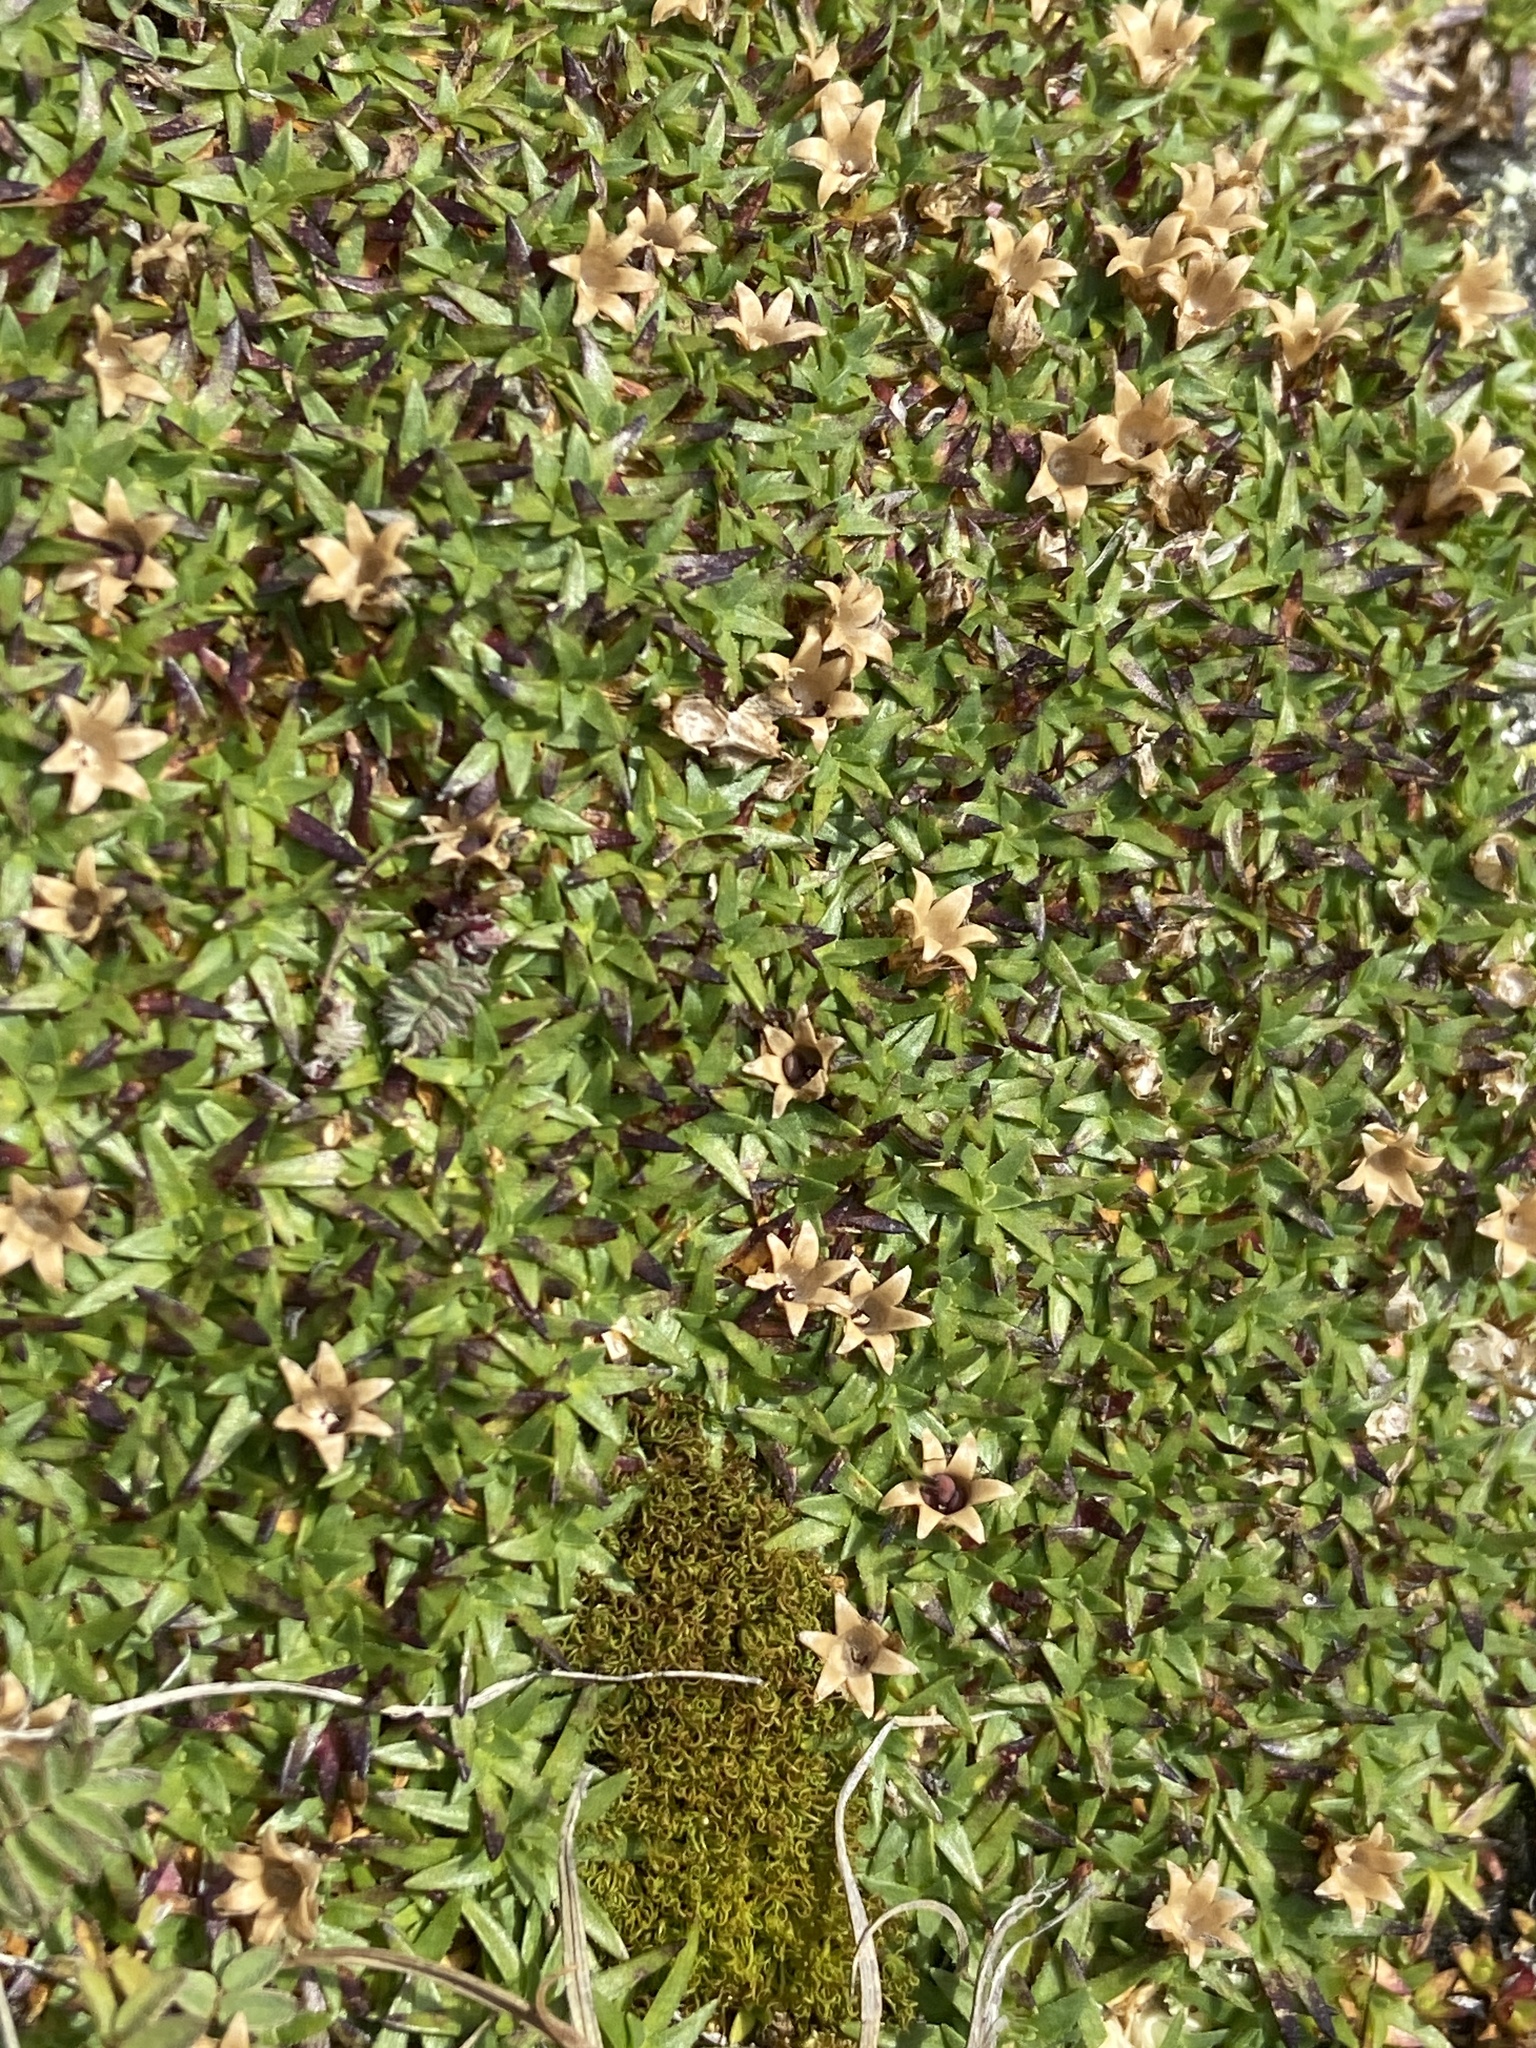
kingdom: Plantae
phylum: Tracheophyta
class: Magnoliopsida
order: Caryophyllales
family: Caryophyllaceae
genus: Silene
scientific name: Silene acaulis
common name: Moss campion
